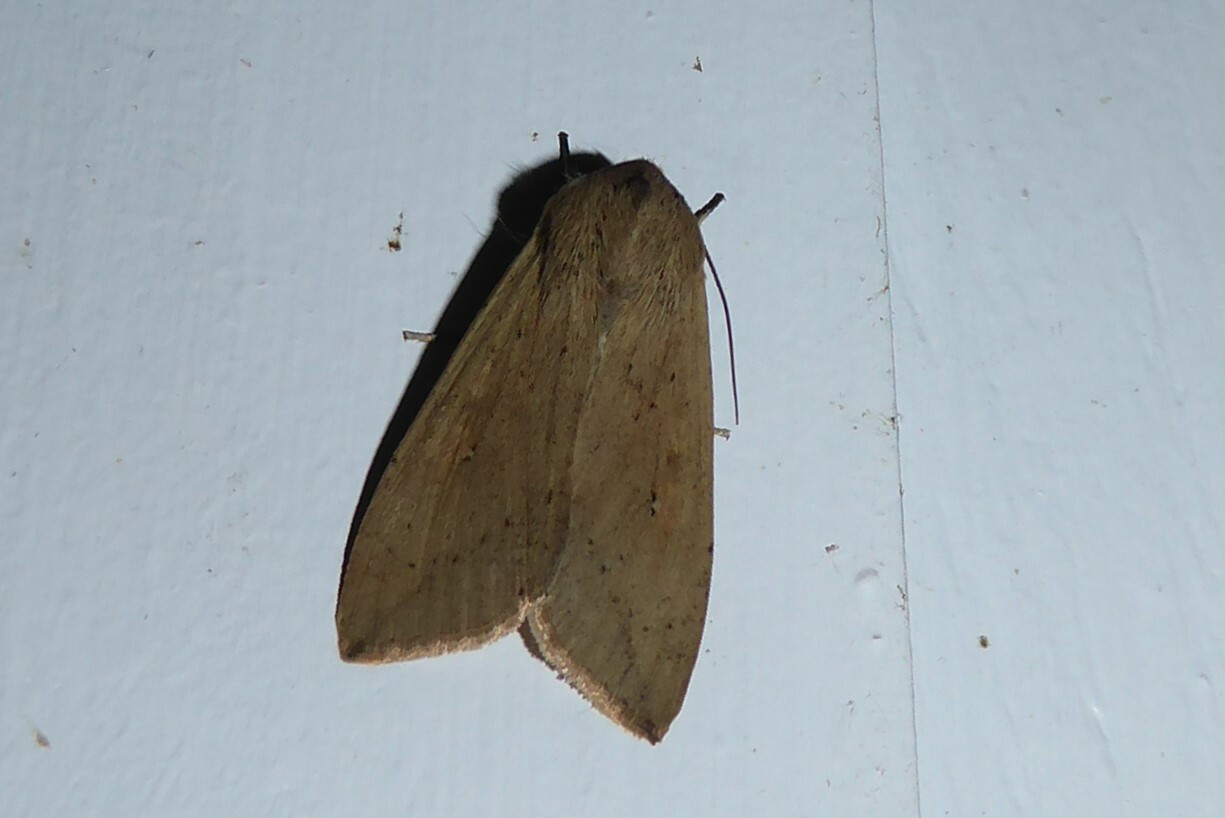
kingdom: Animalia
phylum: Arthropoda
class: Insecta
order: Lepidoptera
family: Noctuidae
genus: Mythimna
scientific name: Mythimna separata
